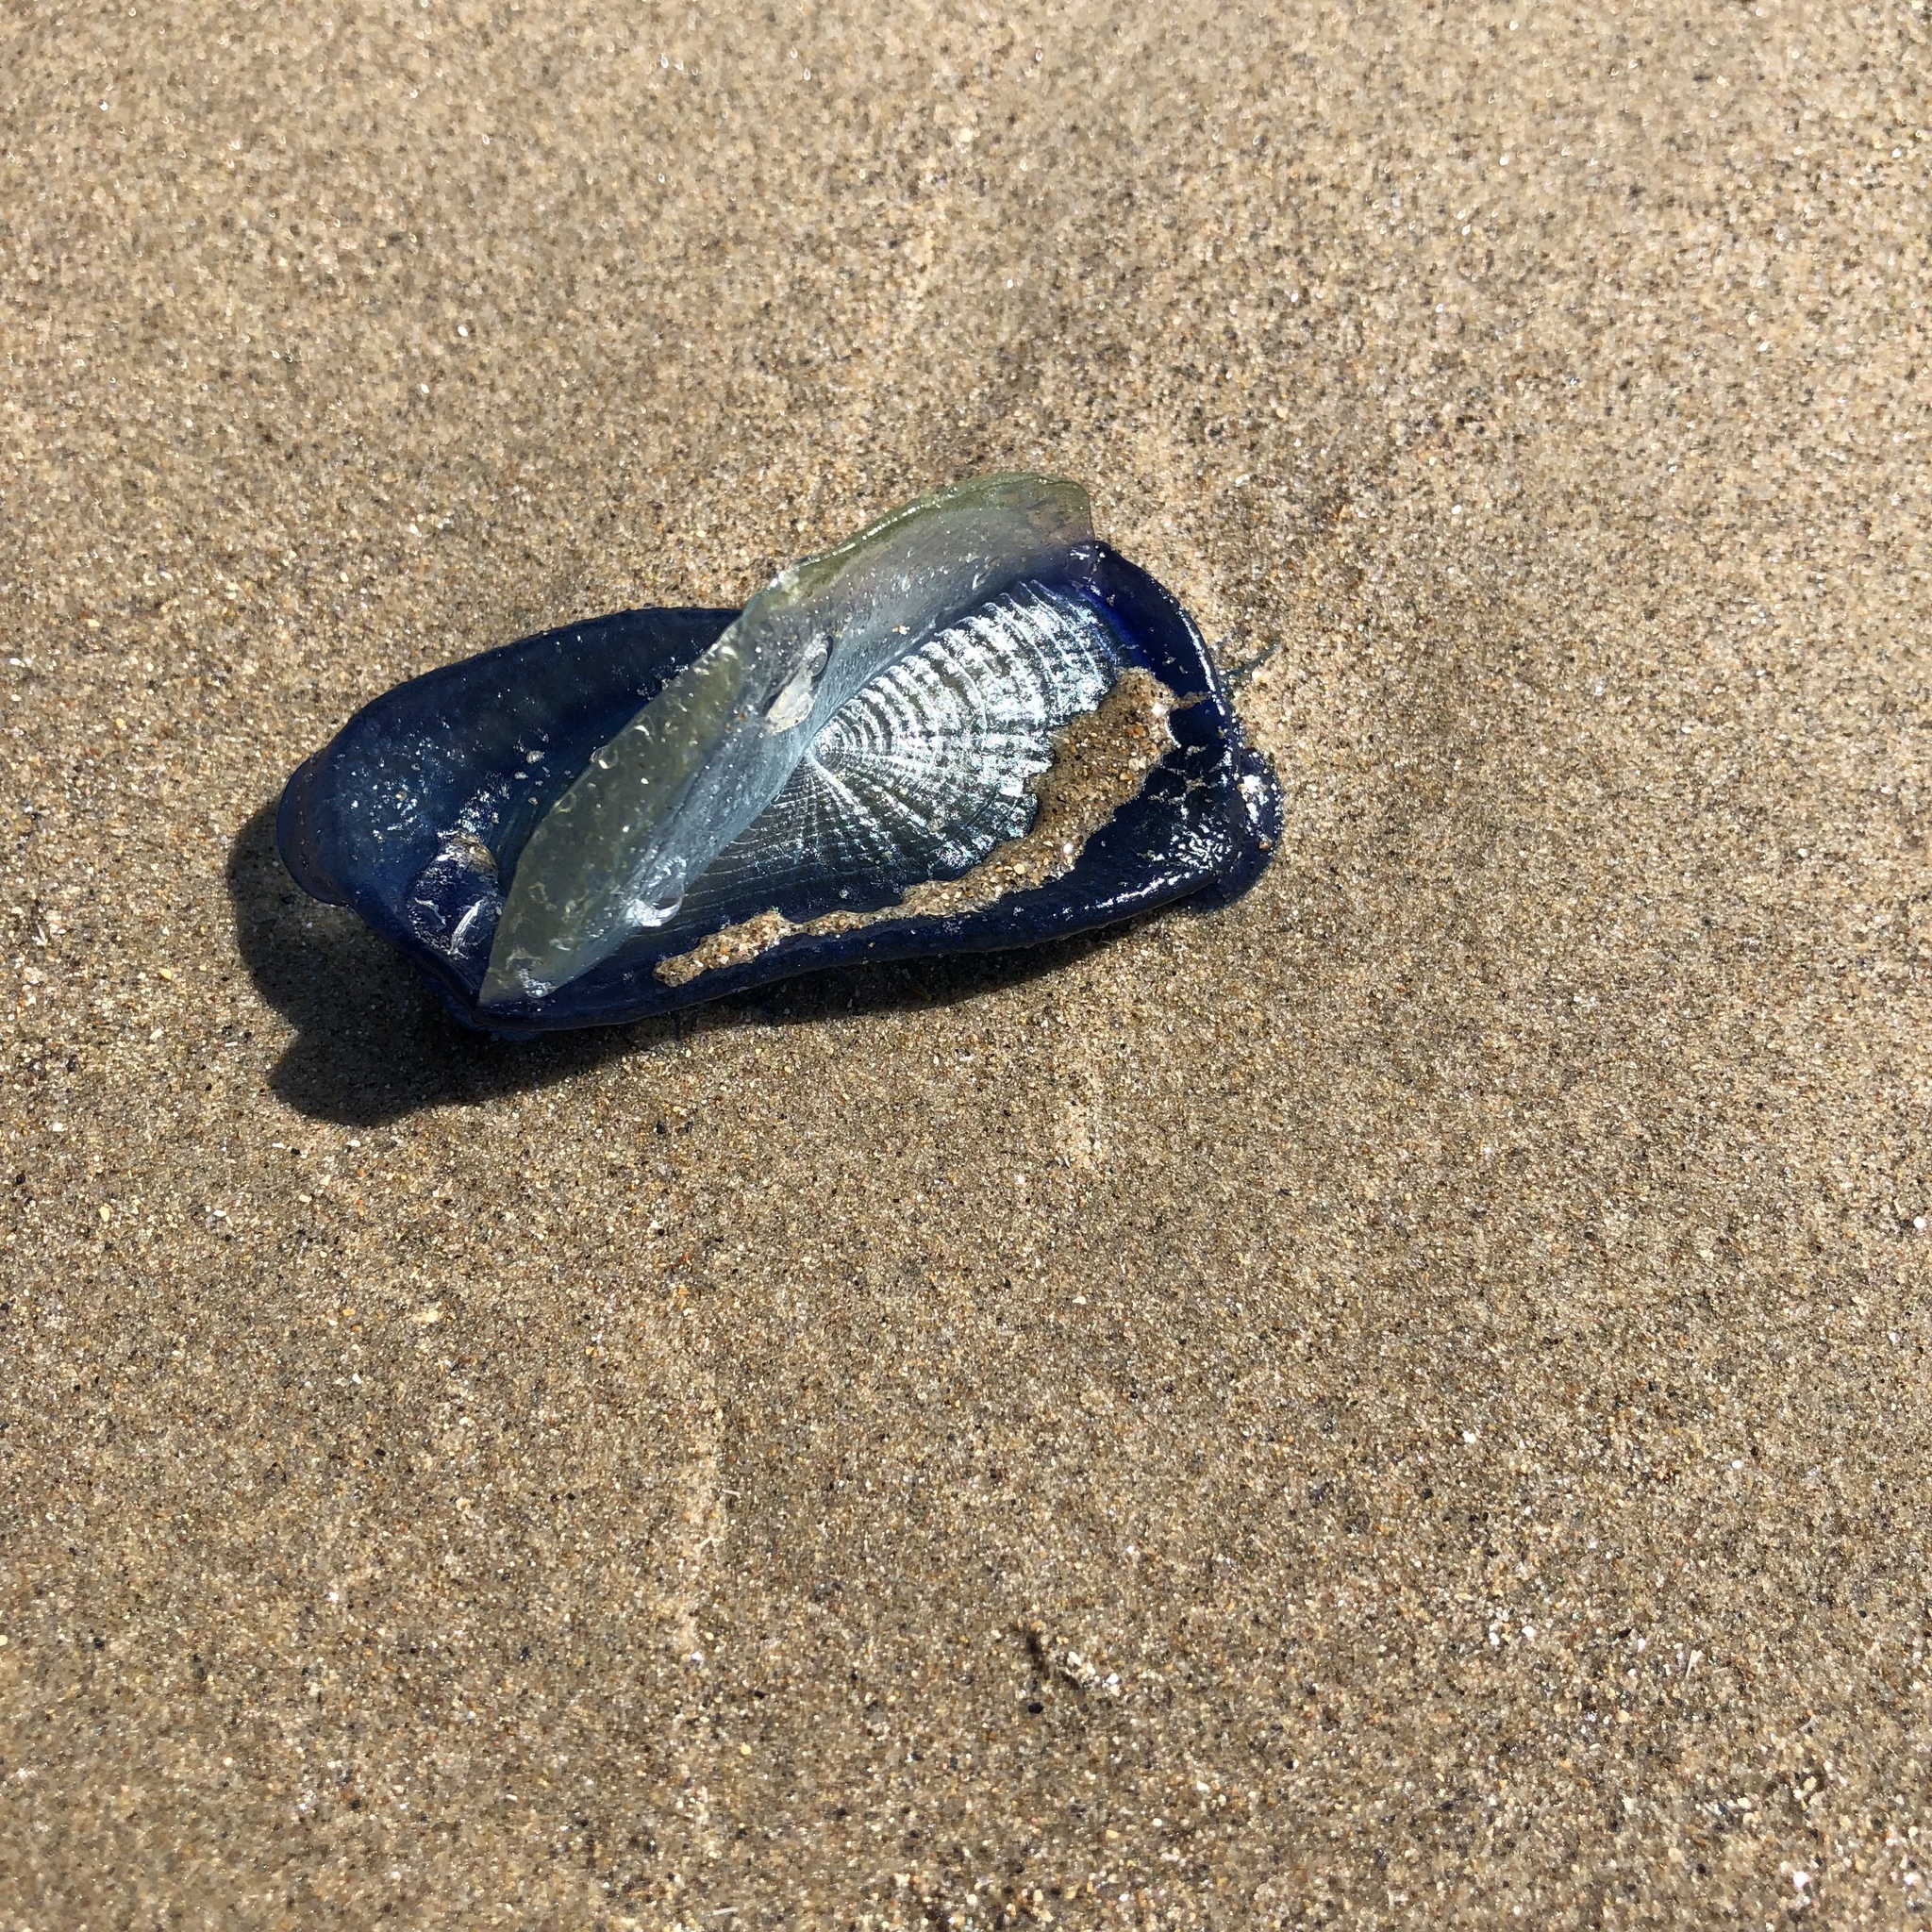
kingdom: Animalia
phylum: Cnidaria
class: Hydrozoa
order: Anthoathecata
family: Porpitidae
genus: Velella
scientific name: Velella velella
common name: By-the-wind-sailor
